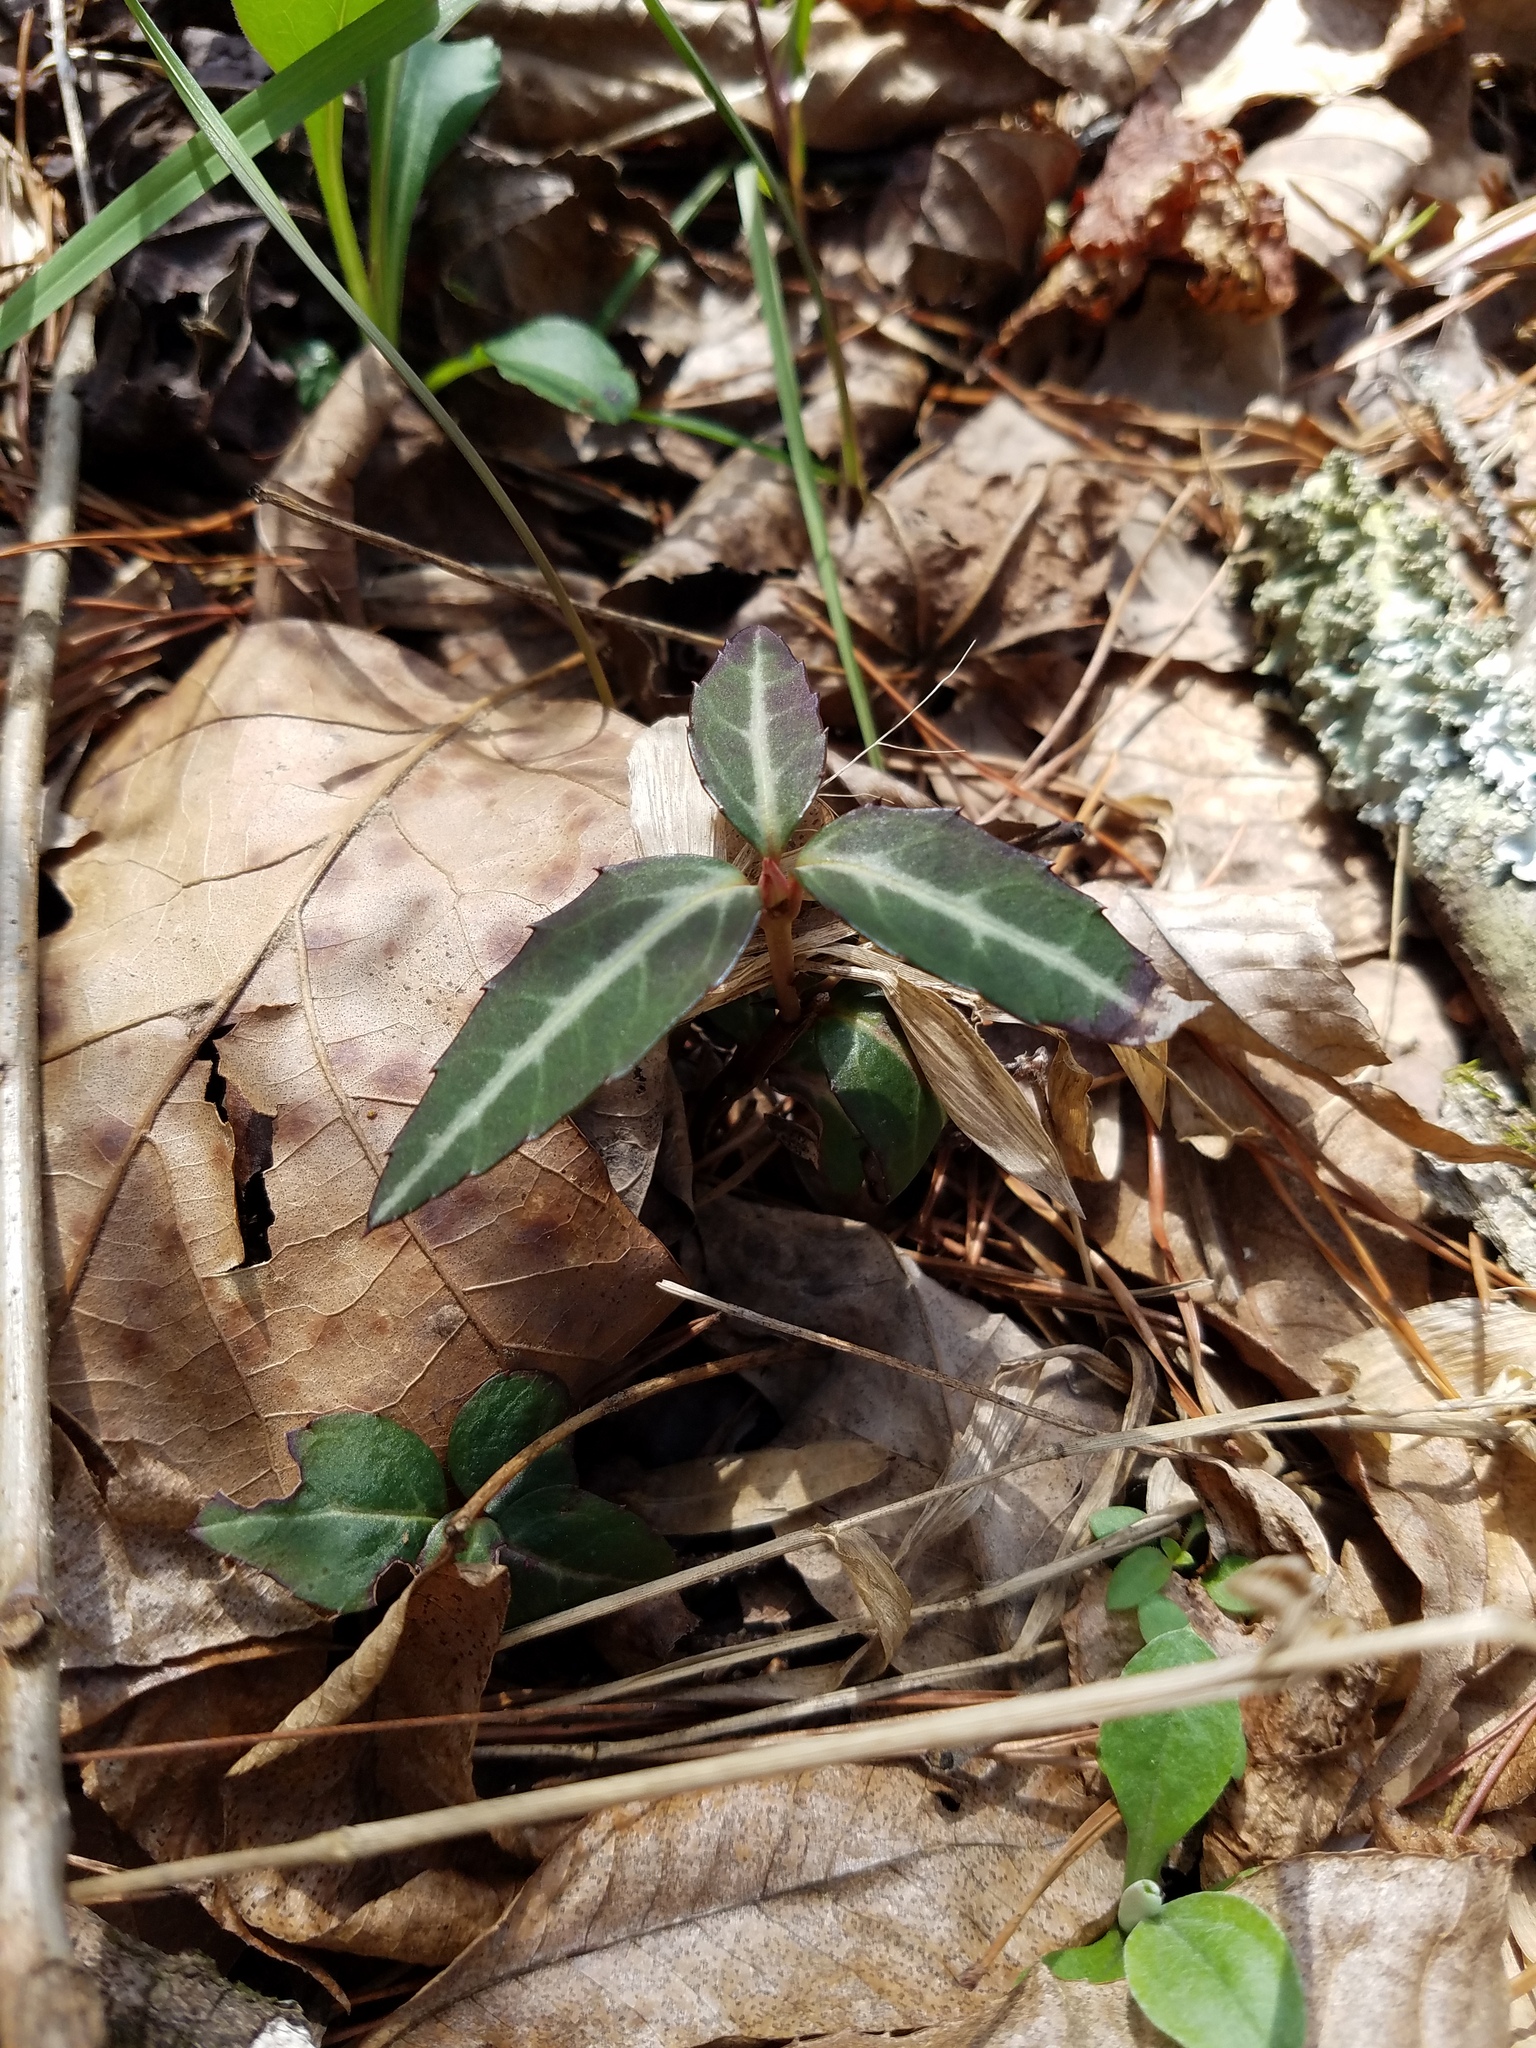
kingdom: Plantae
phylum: Tracheophyta
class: Magnoliopsida
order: Ericales
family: Ericaceae
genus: Chimaphila
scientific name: Chimaphila maculata
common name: Spotted pipsissewa
